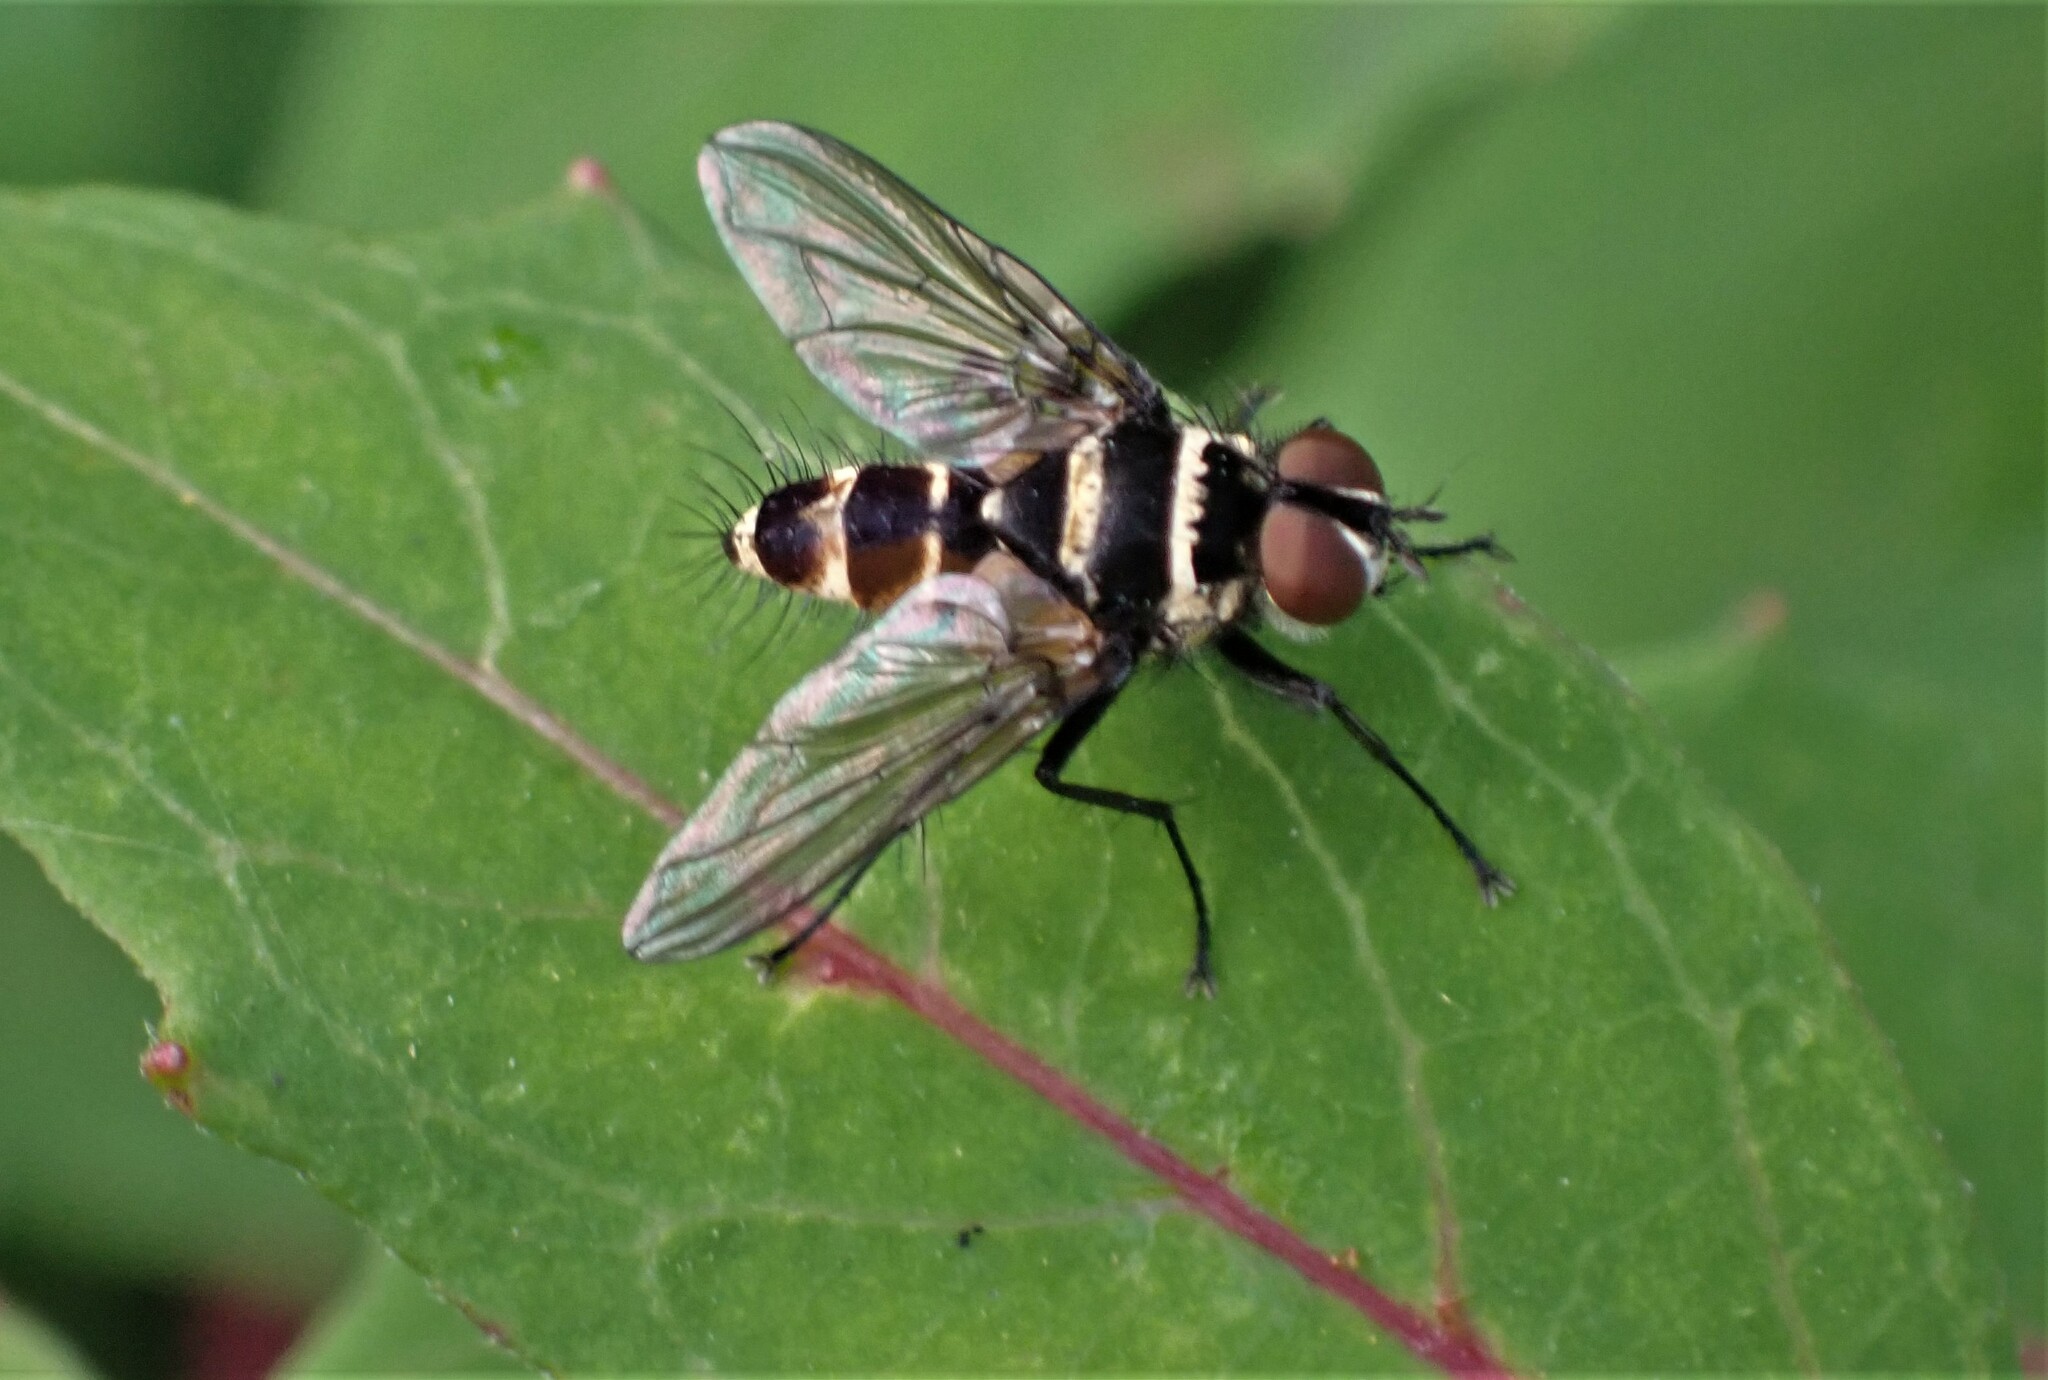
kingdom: Animalia
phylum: Arthropoda
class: Insecta
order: Diptera
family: Tachinidae
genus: Trigonospila
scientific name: Trigonospila brevifacies
